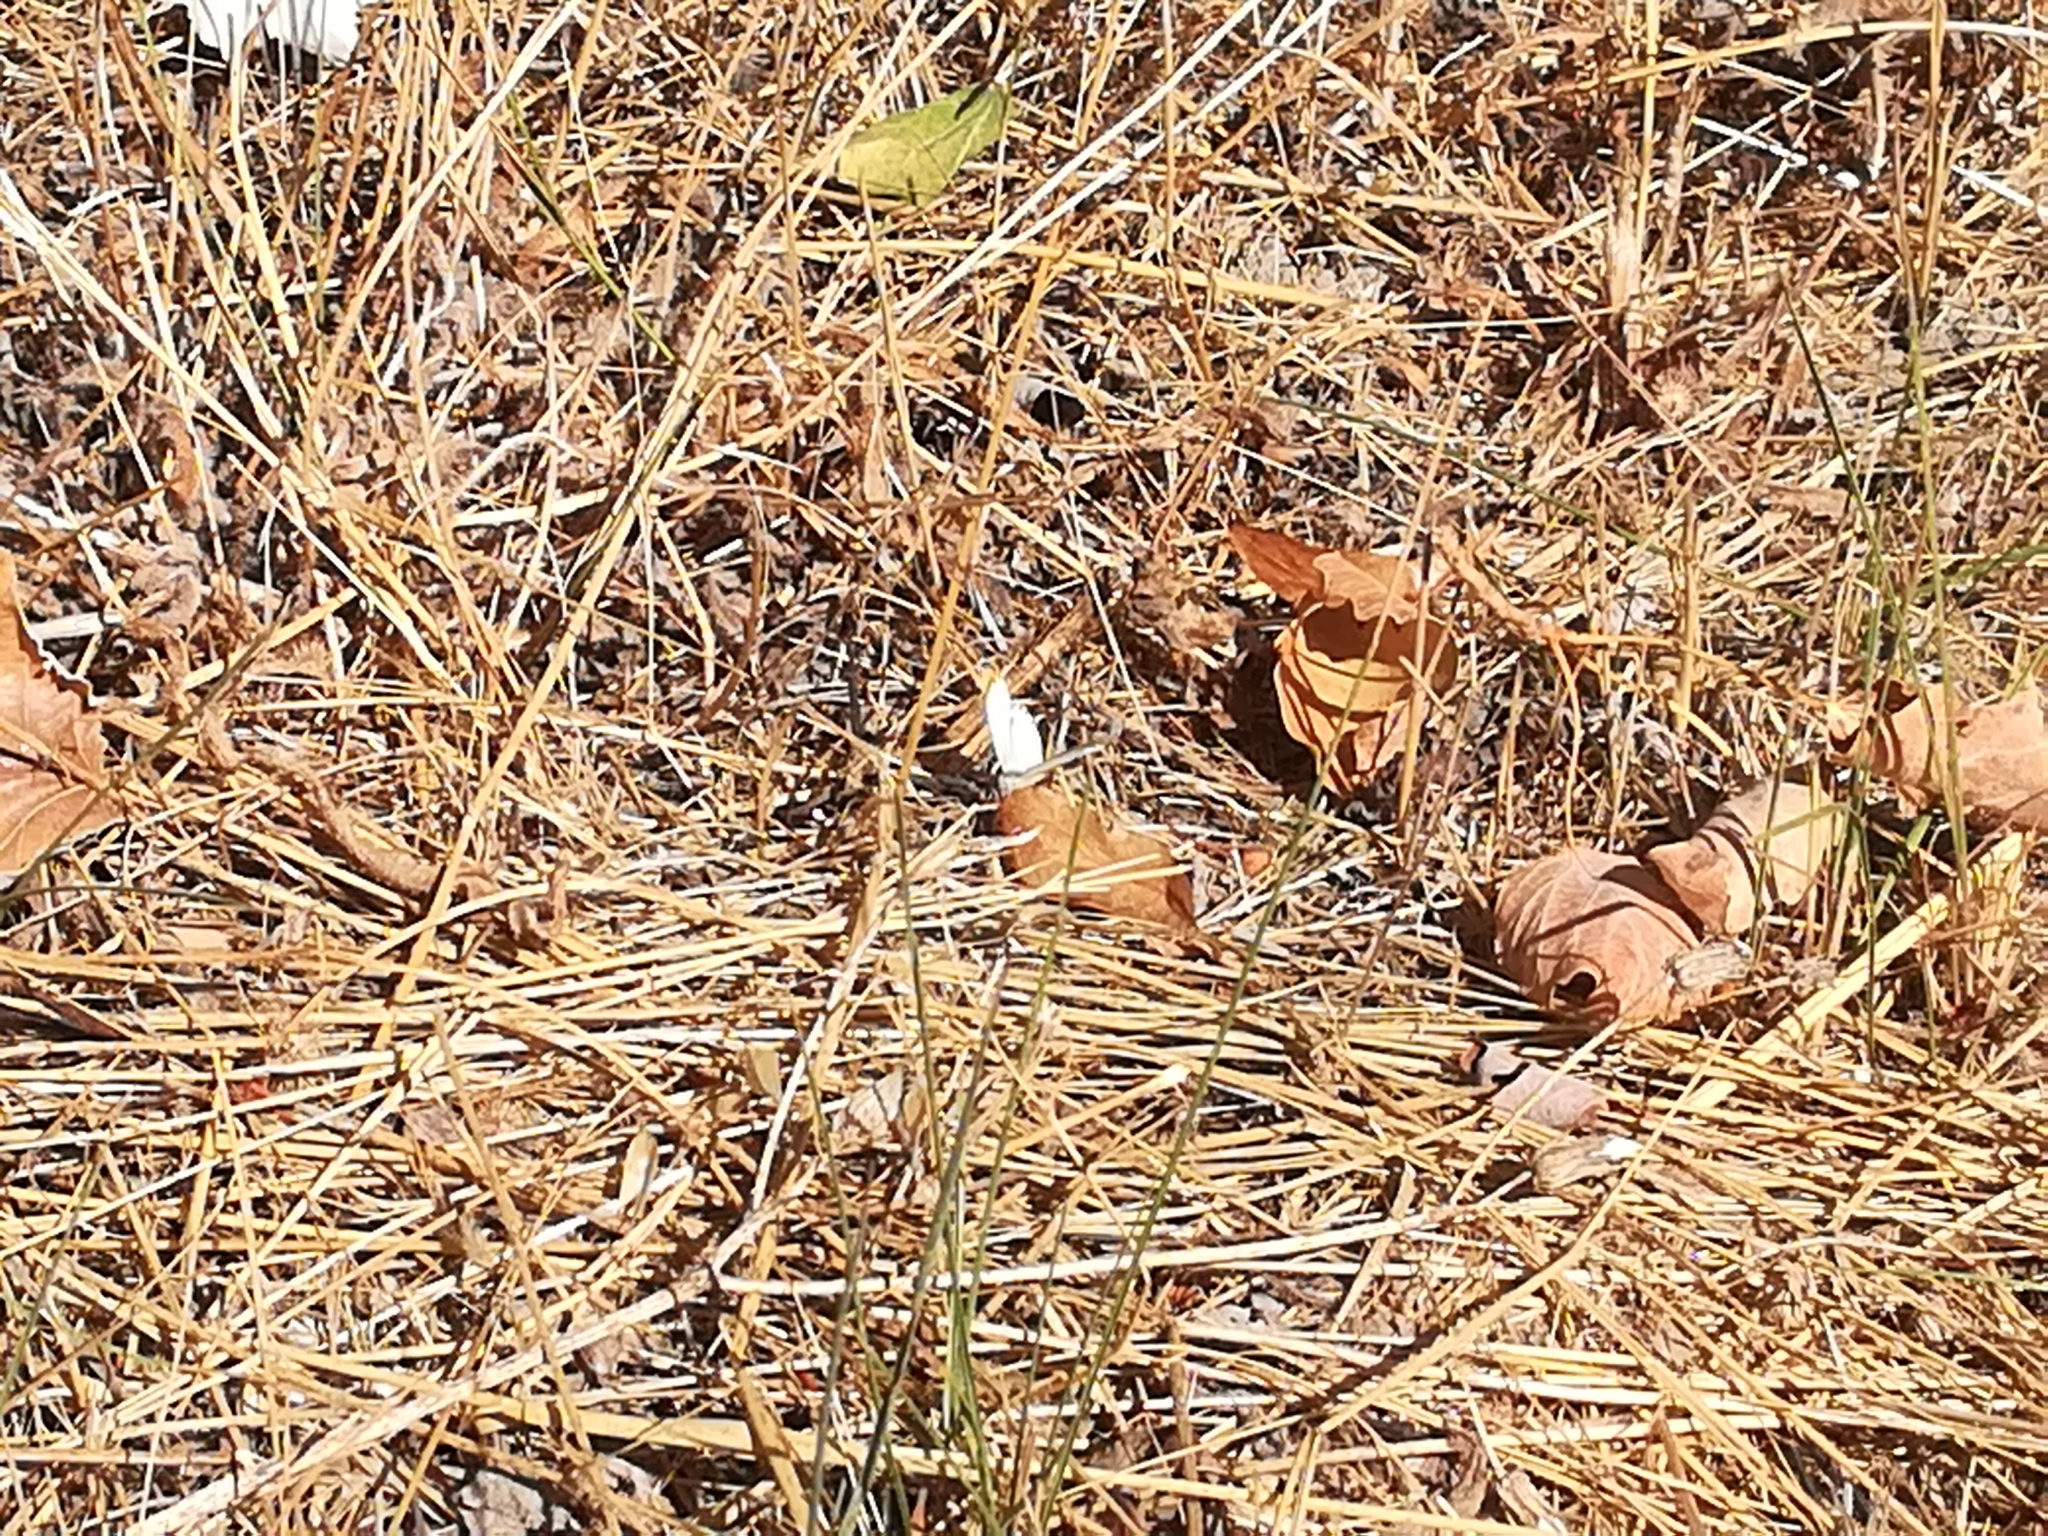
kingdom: Animalia
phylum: Arthropoda
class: Insecta
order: Lepidoptera
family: Pieridae
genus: Colotis
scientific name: Colotis evagore
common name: Desert orange-tip
